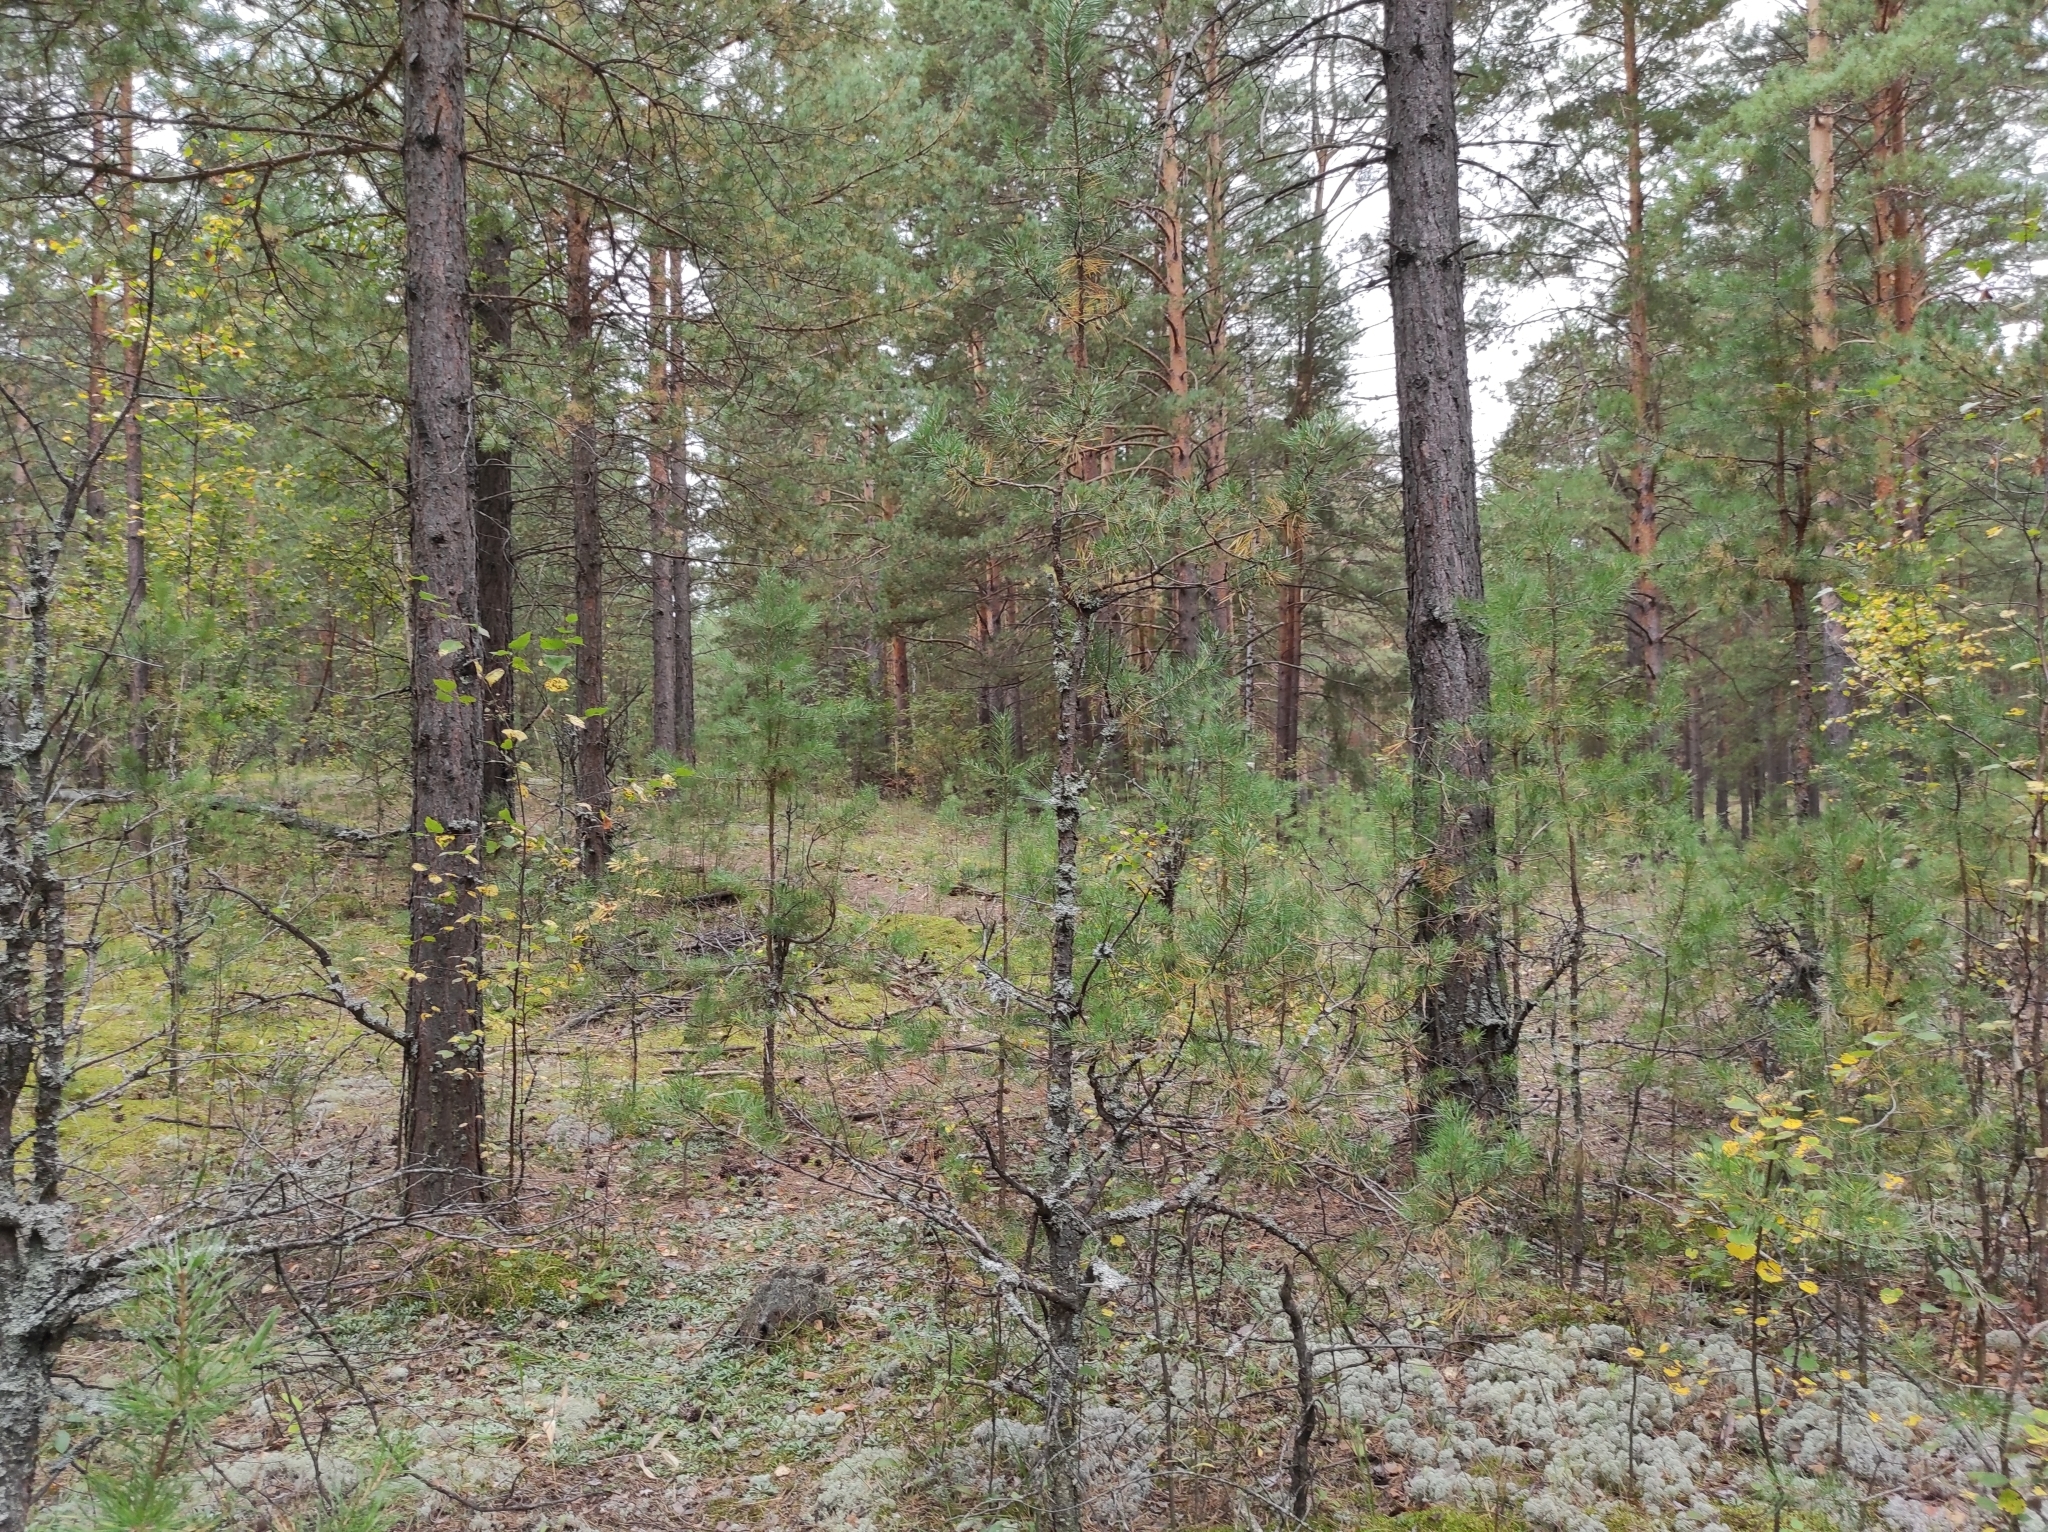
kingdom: Plantae
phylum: Tracheophyta
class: Pinopsida
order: Pinales
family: Pinaceae
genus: Pinus
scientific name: Pinus sylvestris
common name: Scots pine
